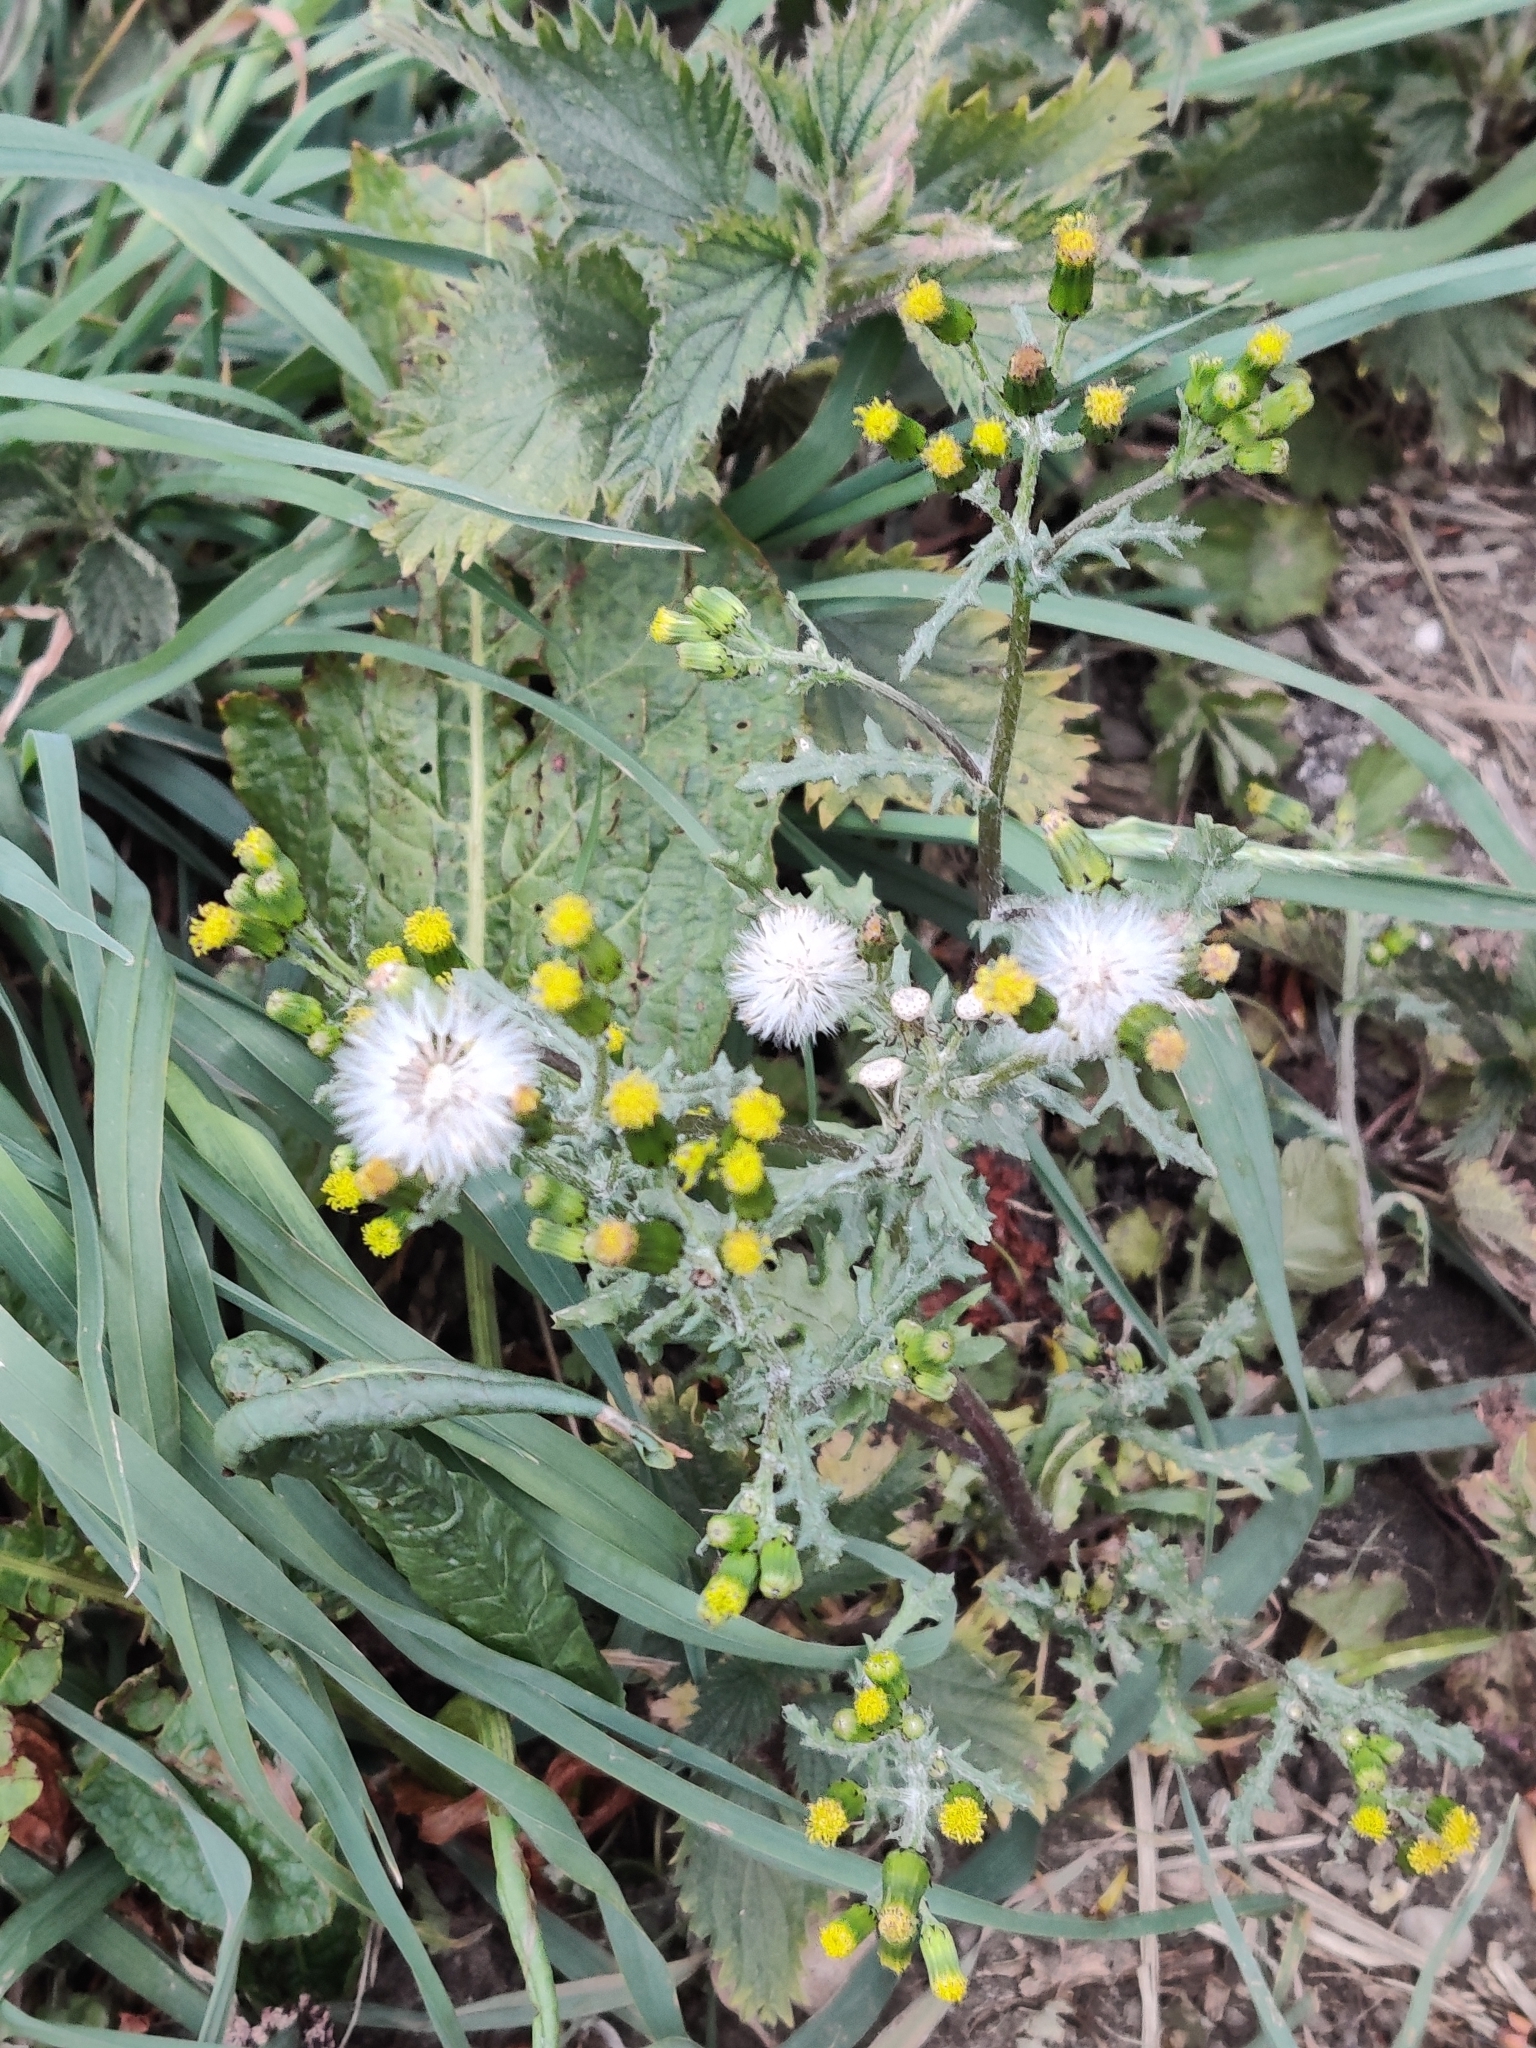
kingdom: Plantae
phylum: Tracheophyta
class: Magnoliopsida
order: Asterales
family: Asteraceae
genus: Senecio
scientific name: Senecio vulgaris
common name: Old-man-in-the-spring
